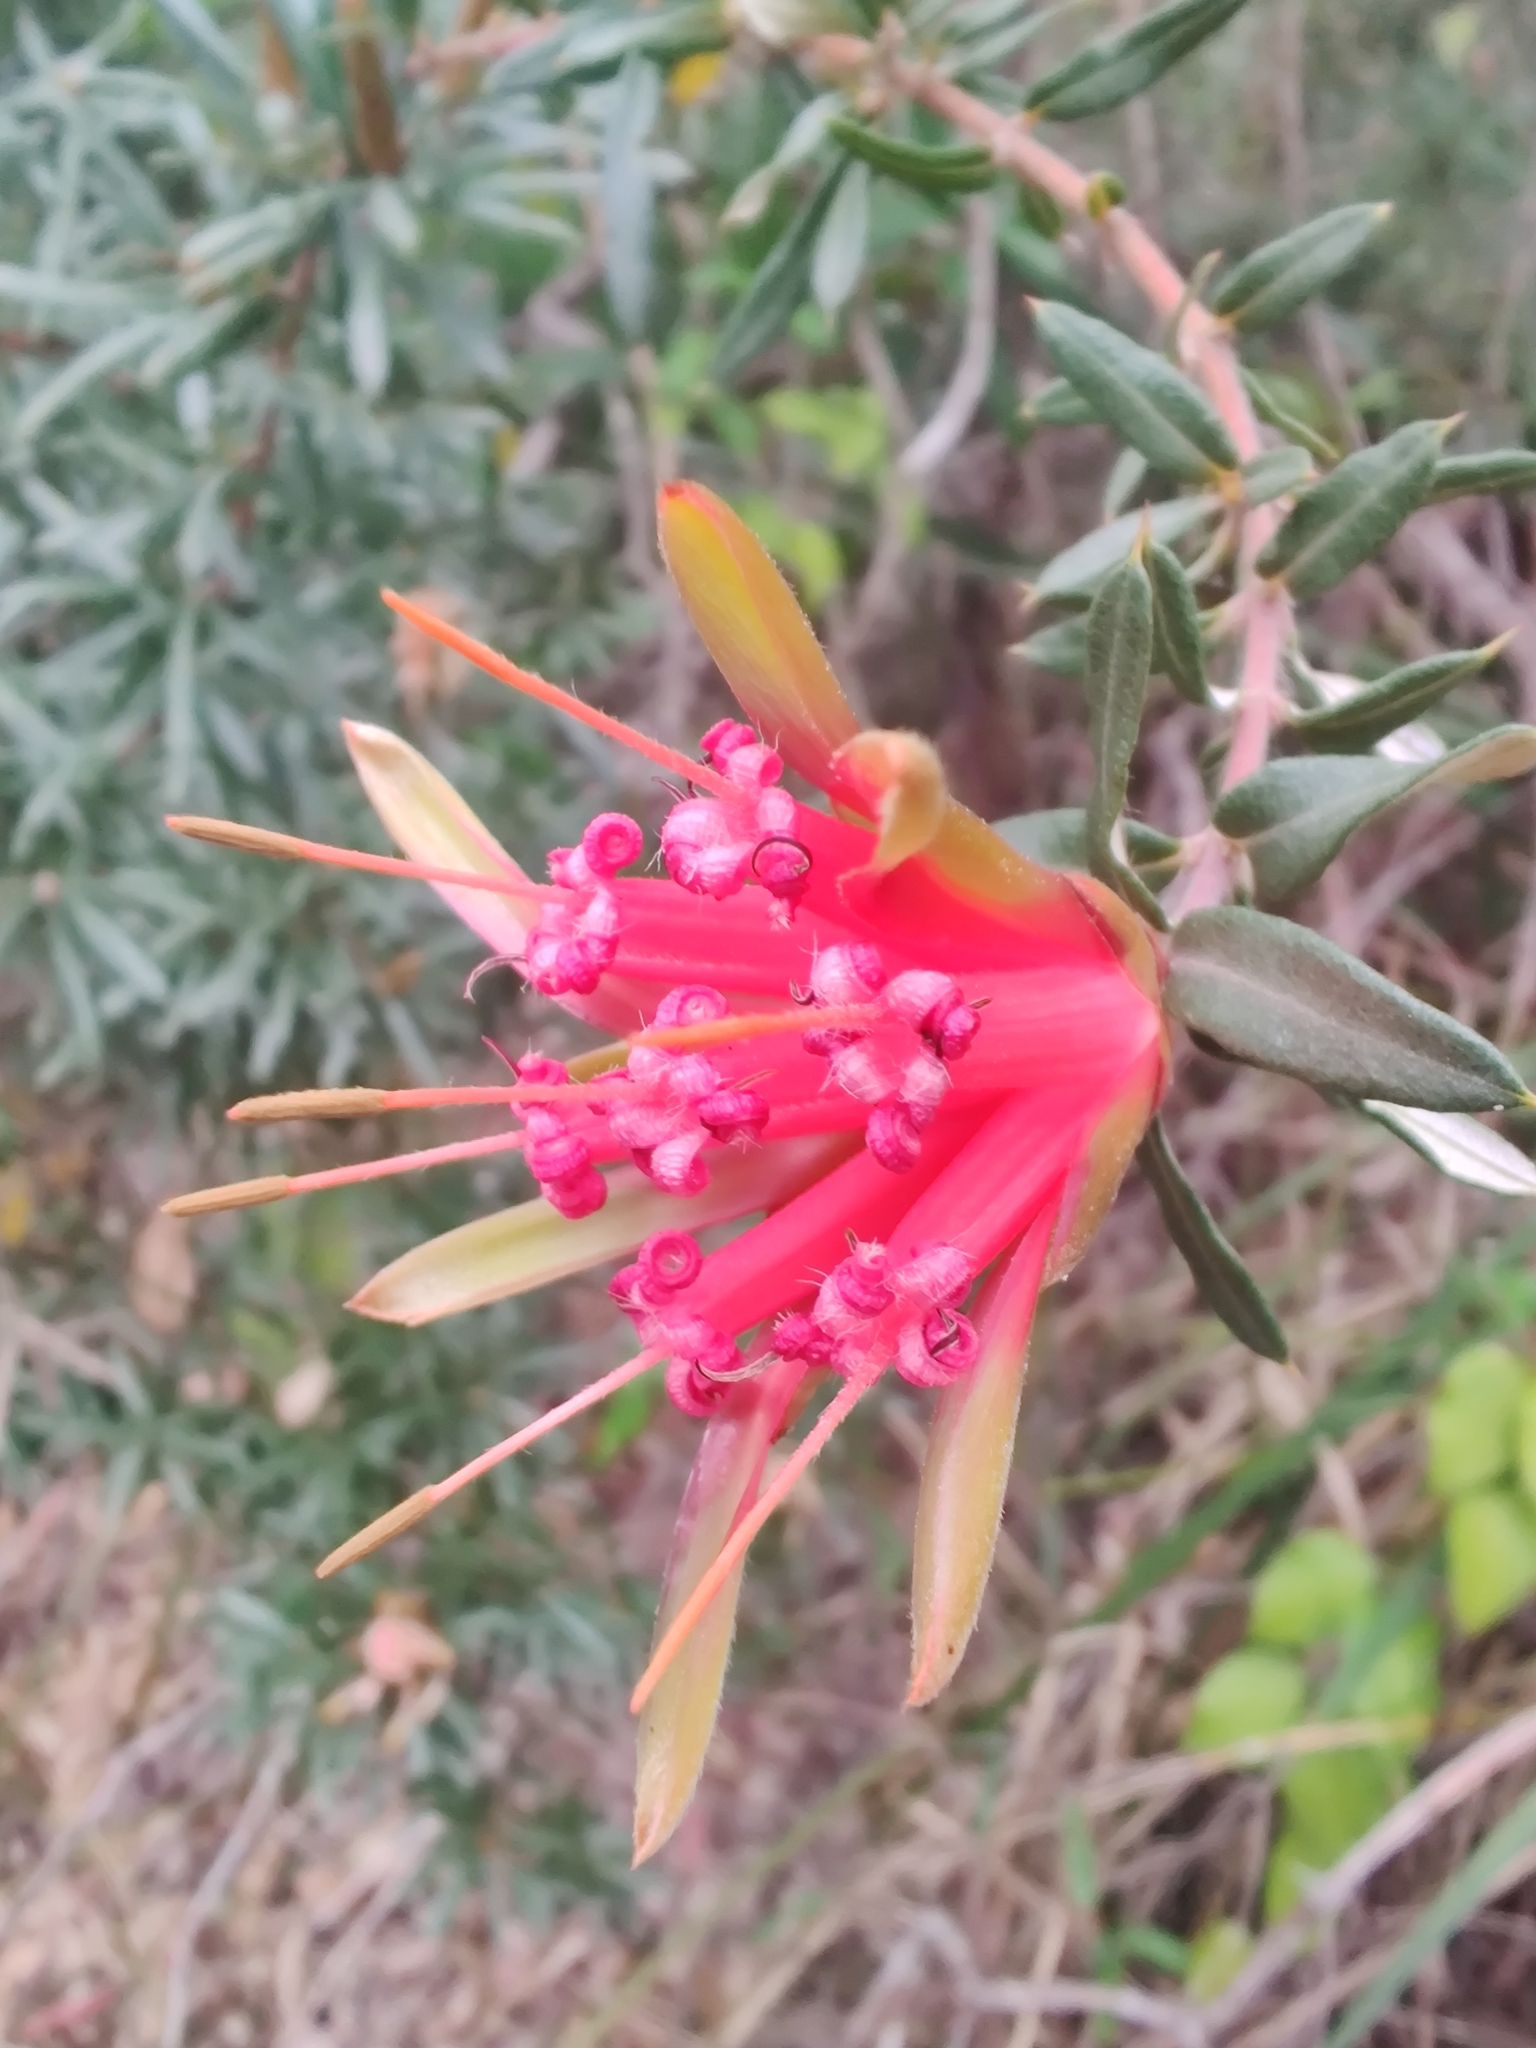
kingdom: Plantae
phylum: Tracheophyta
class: Magnoliopsida
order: Proteales
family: Proteaceae
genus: Lambertia
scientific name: Lambertia formosa
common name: Mountain-devil
